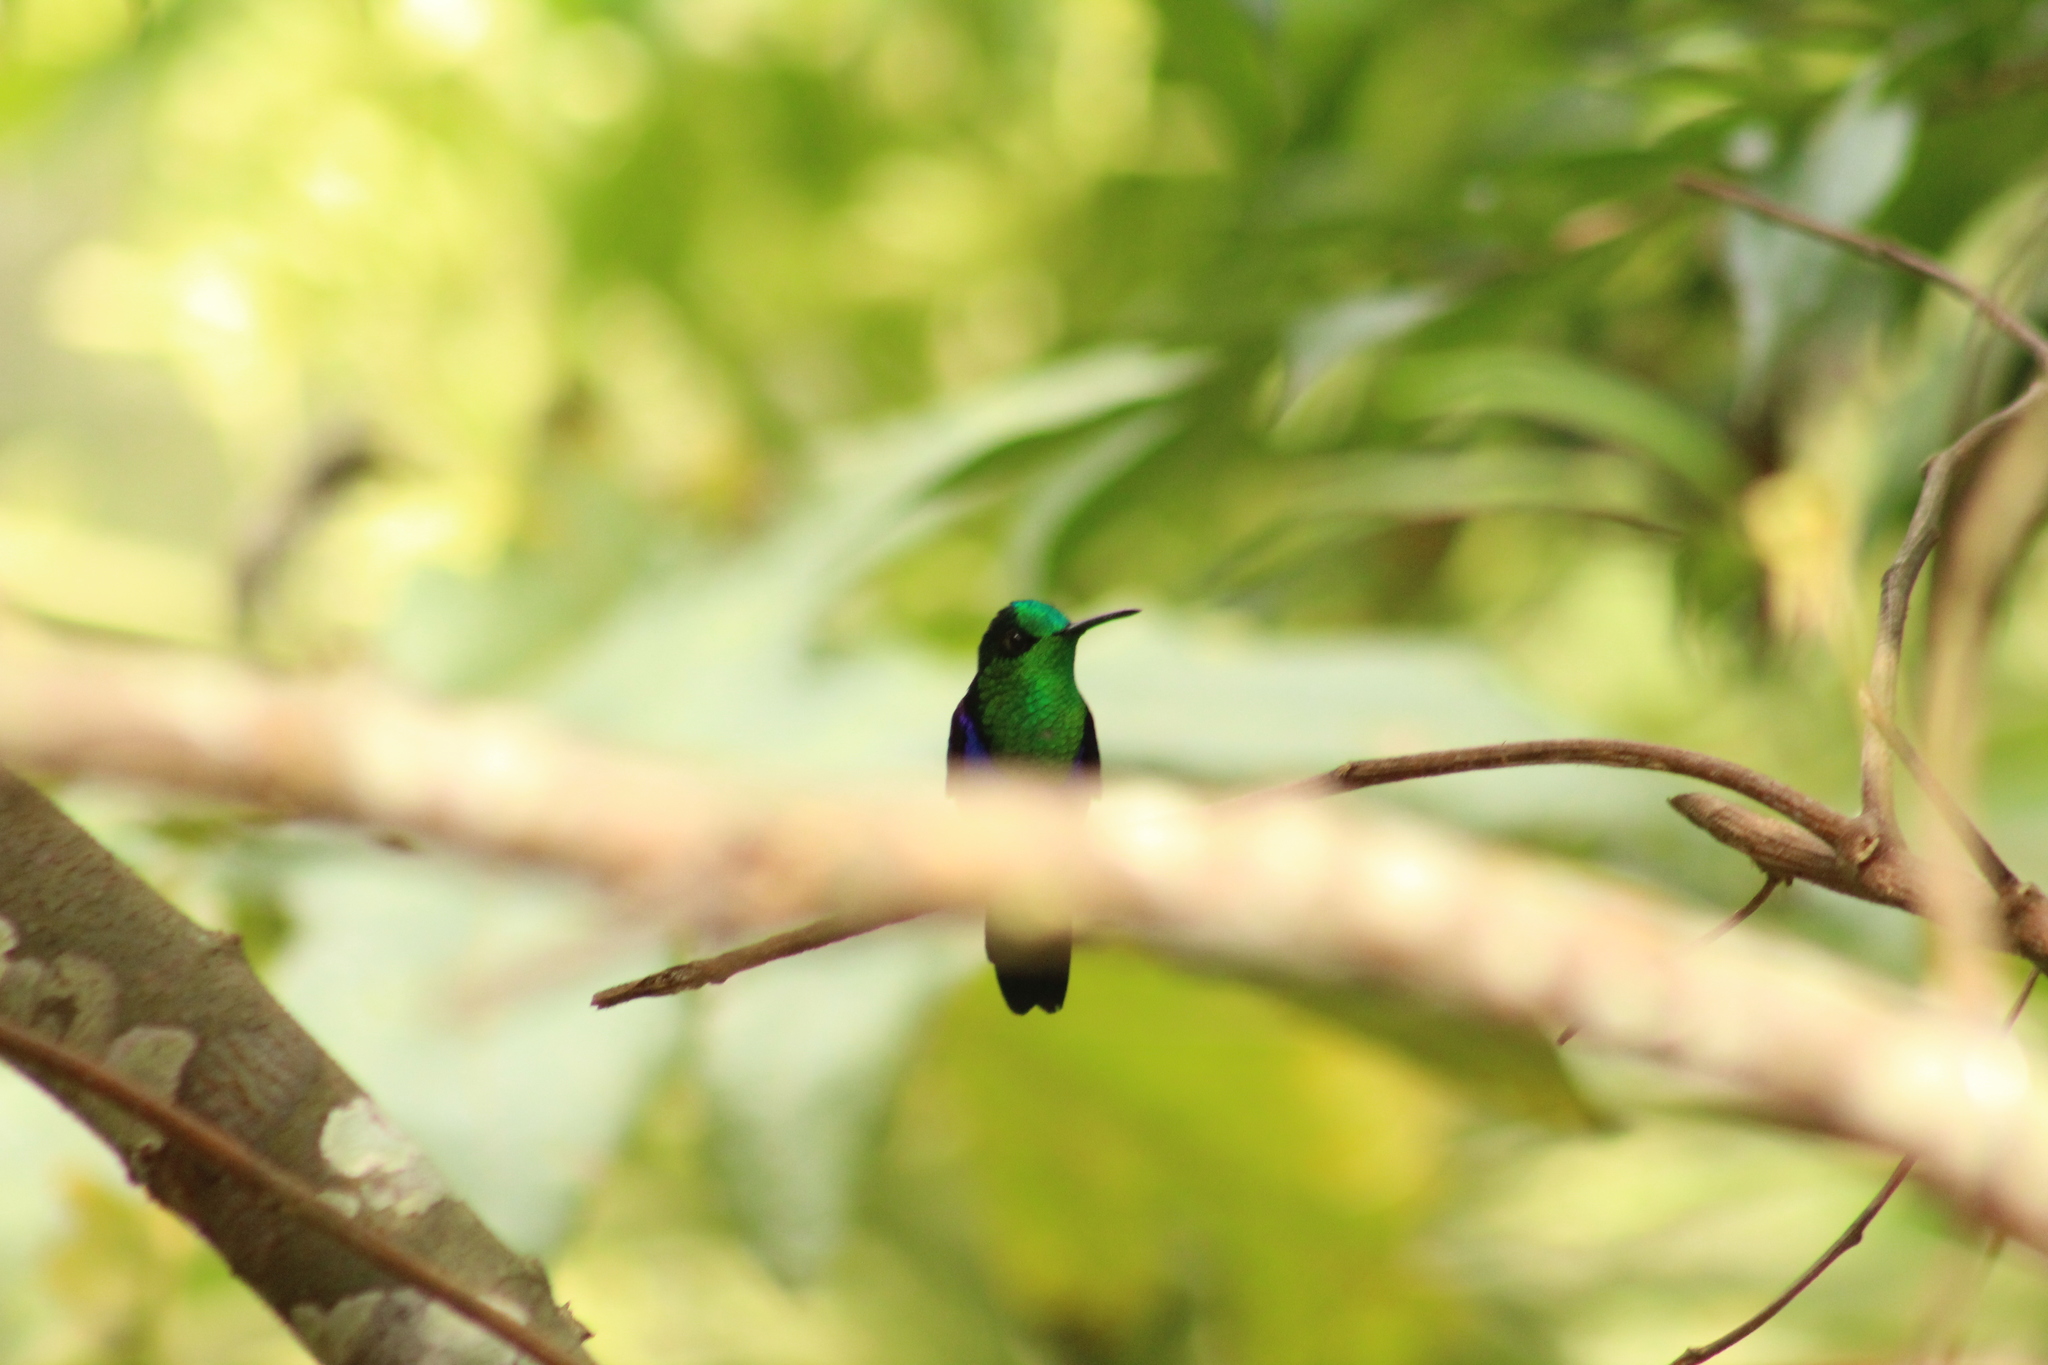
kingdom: Animalia
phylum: Chordata
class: Aves
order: Apodiformes
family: Trochilidae
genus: Thalurania
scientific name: Thalurania colombica
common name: Crowned woodnymph
